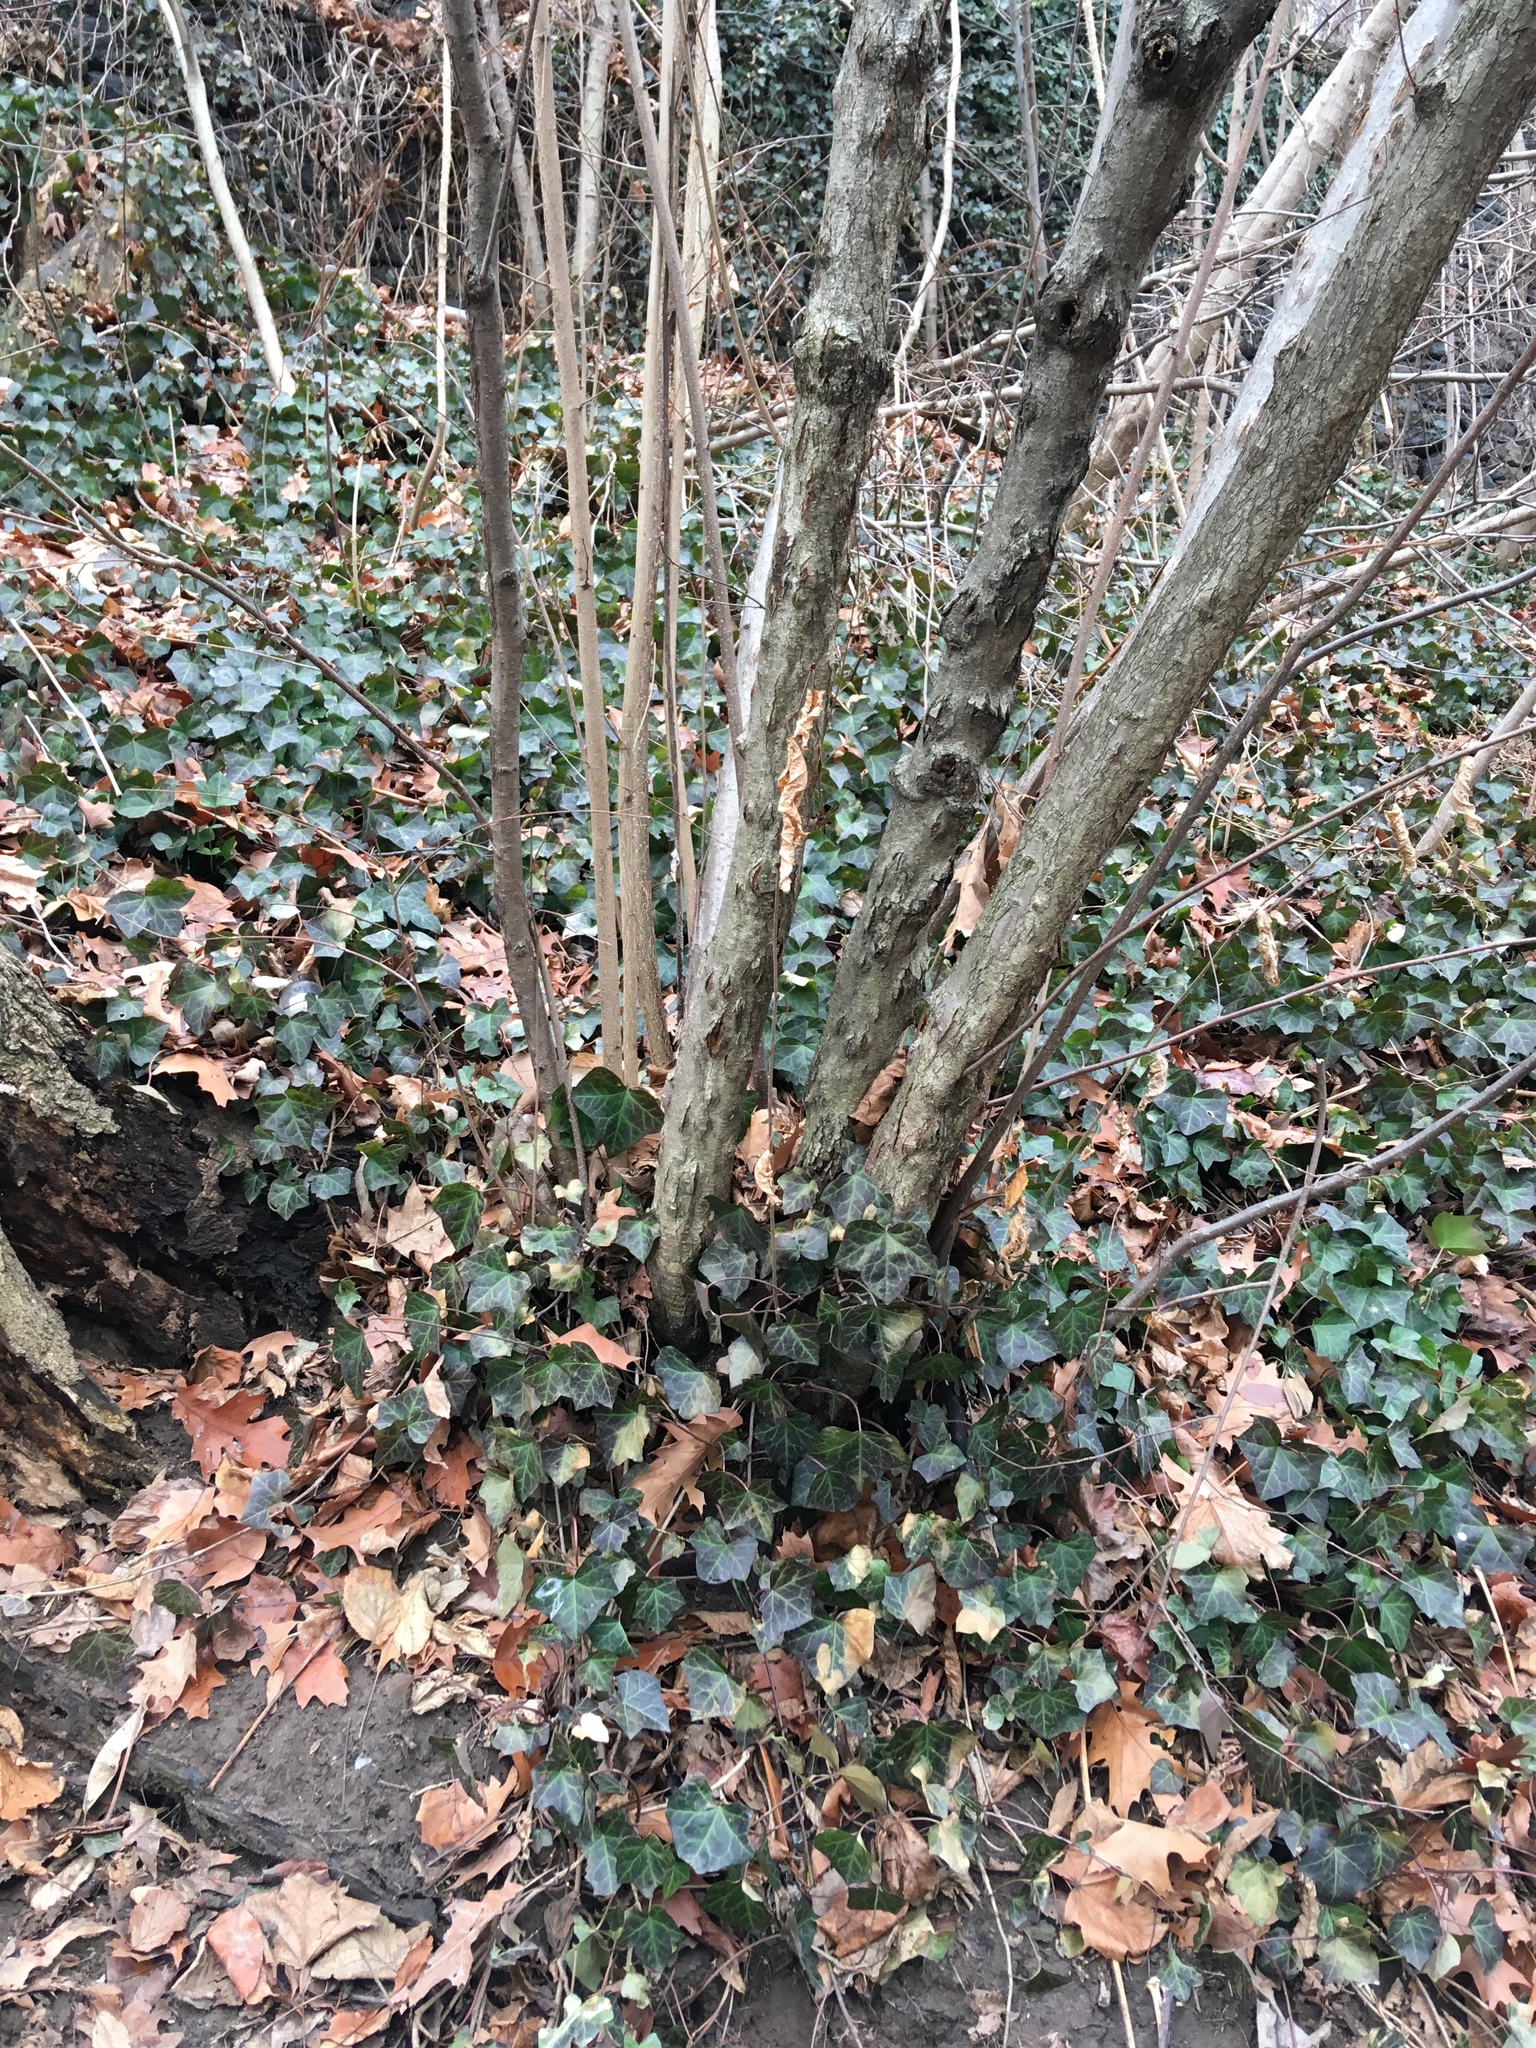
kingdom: Plantae
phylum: Tracheophyta
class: Magnoliopsida
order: Apiales
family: Araliaceae
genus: Hedera
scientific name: Hedera helix
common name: Ivy
